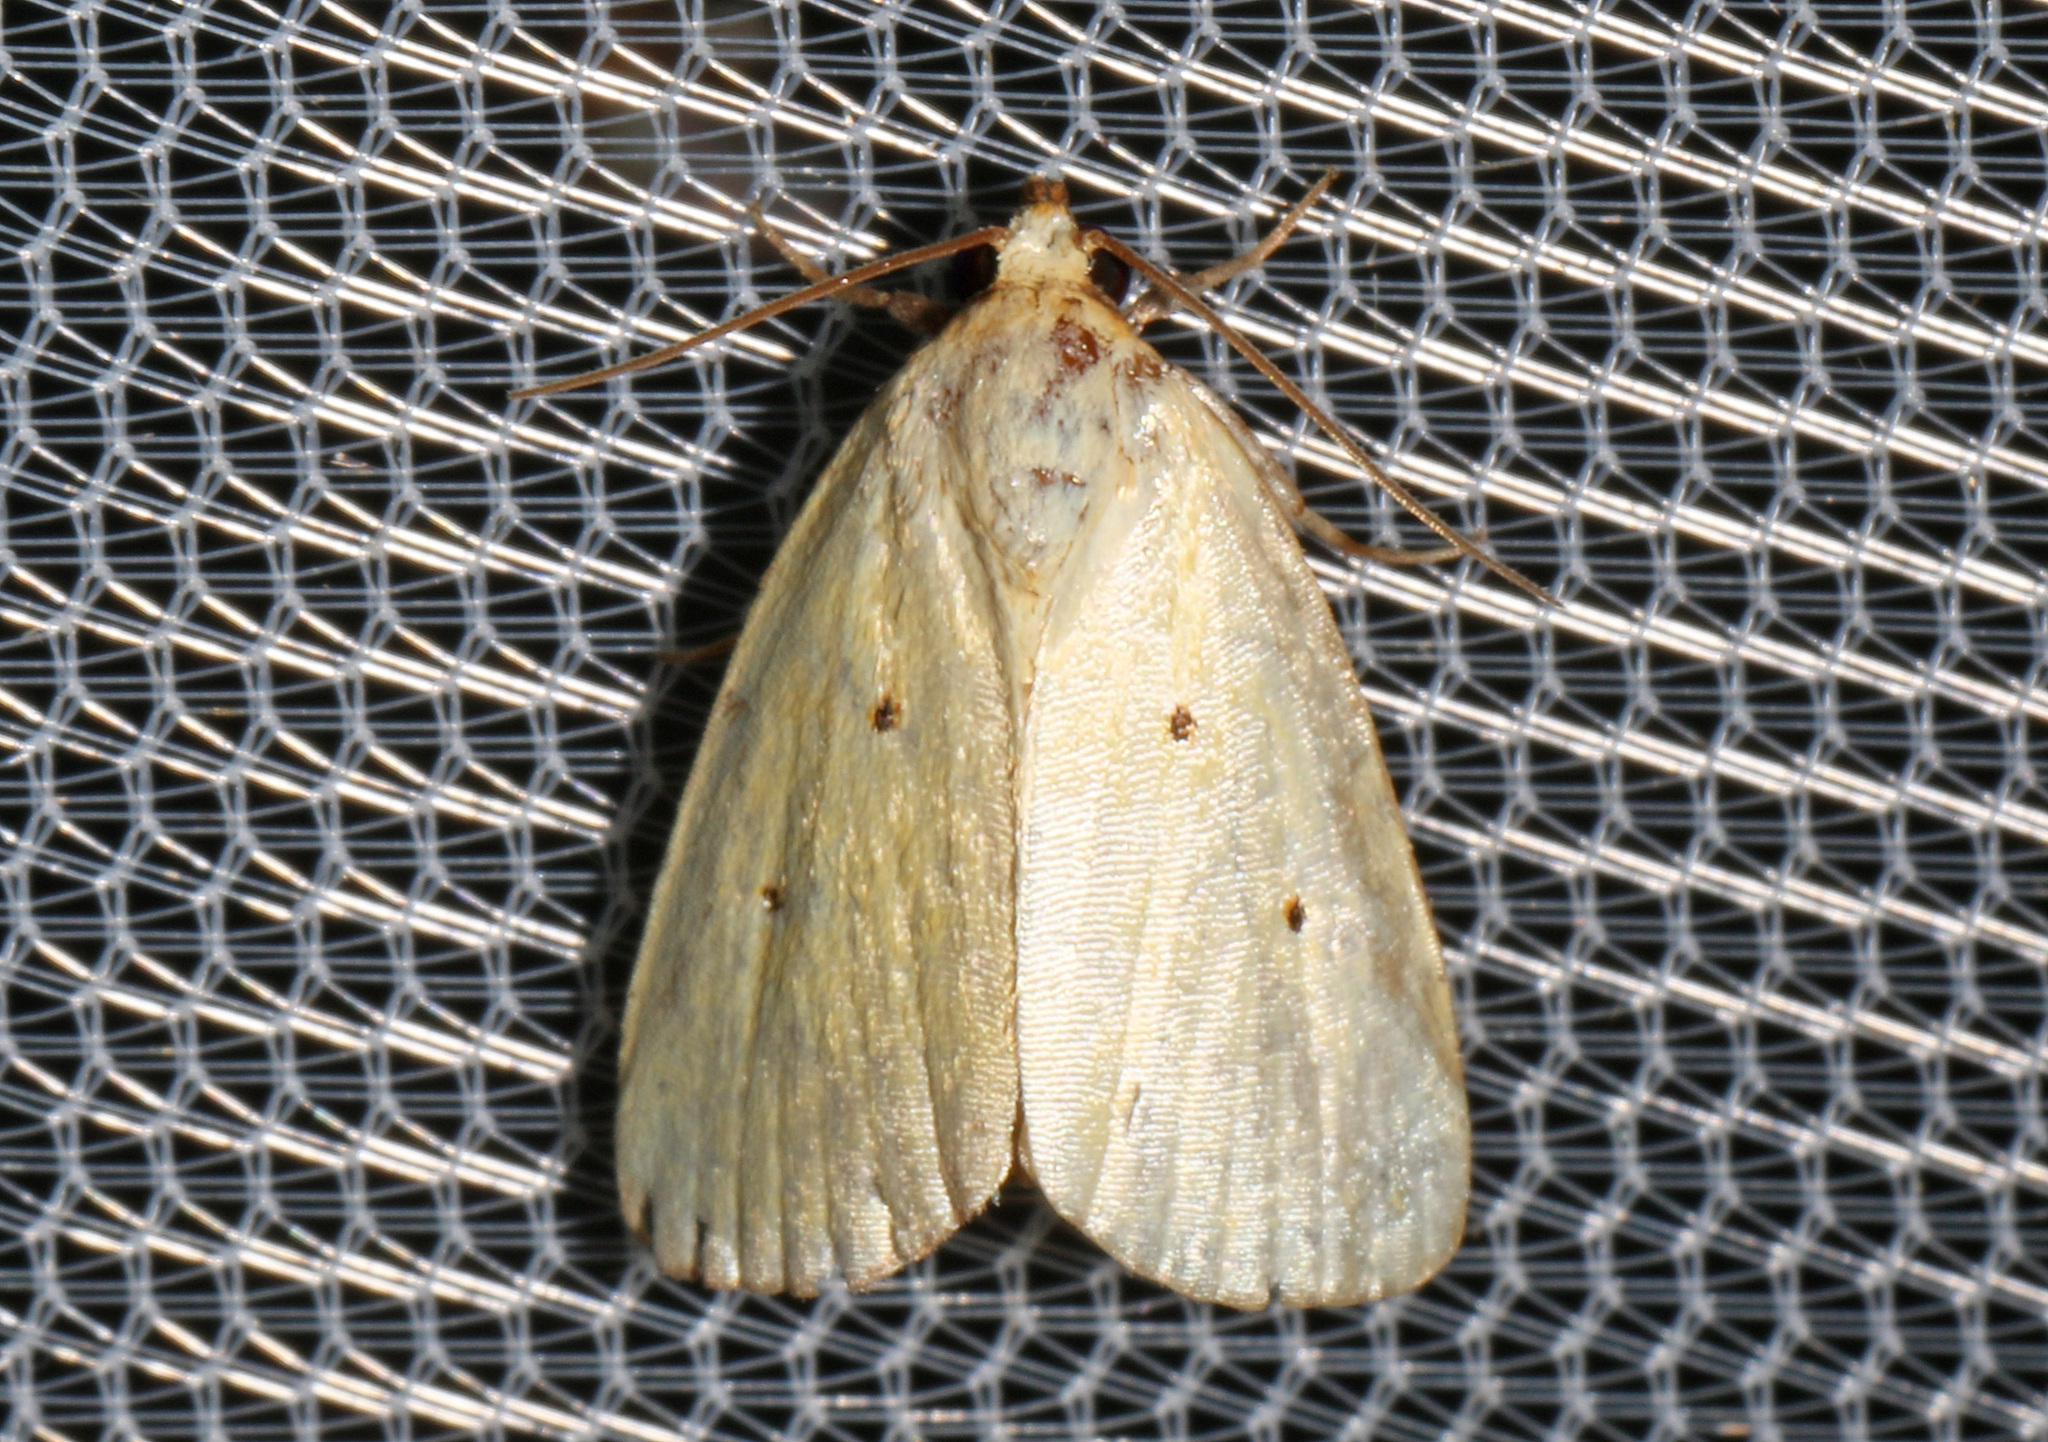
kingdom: Animalia
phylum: Arthropoda
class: Insecta
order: Lepidoptera
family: Noctuidae
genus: Marimatha
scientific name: Marimatha nigrofimbria
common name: Black-bordered lemon moth
